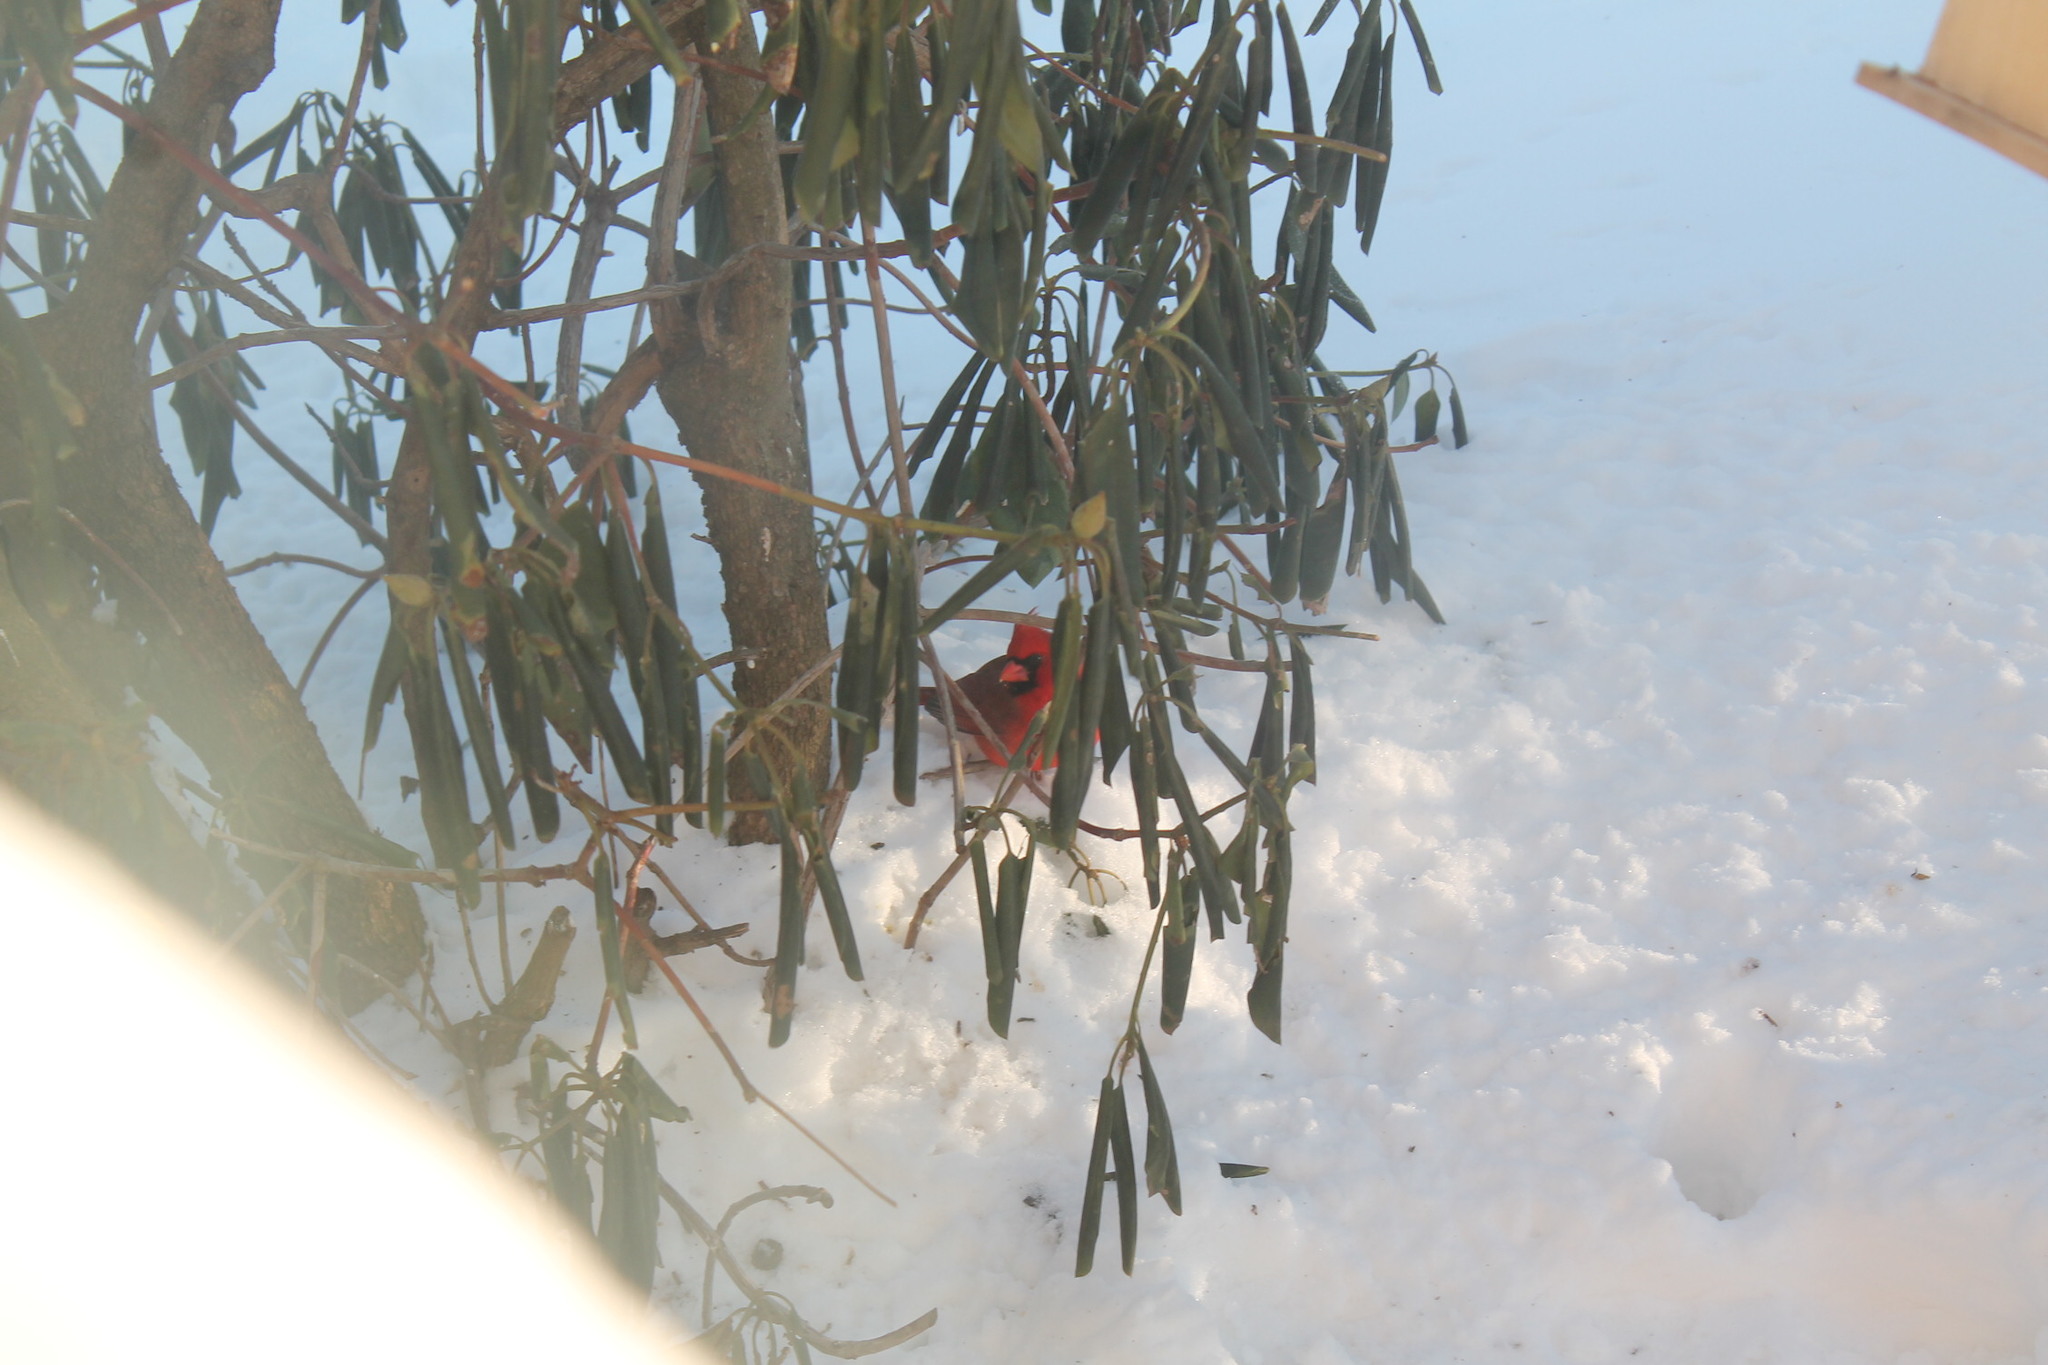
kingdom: Animalia
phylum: Chordata
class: Aves
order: Passeriformes
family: Cardinalidae
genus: Cardinalis
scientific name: Cardinalis cardinalis
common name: Northern cardinal
